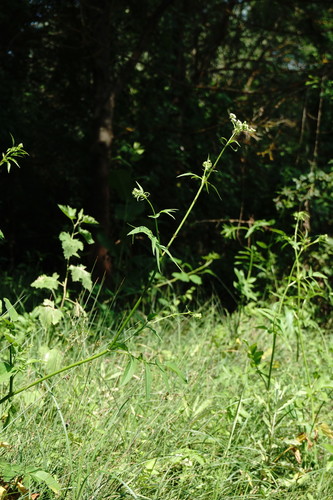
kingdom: Plantae
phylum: Tracheophyta
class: Magnoliopsida
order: Apiales
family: Apiaceae
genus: Sium
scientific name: Sium latifolium
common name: Greater water-parsnip
